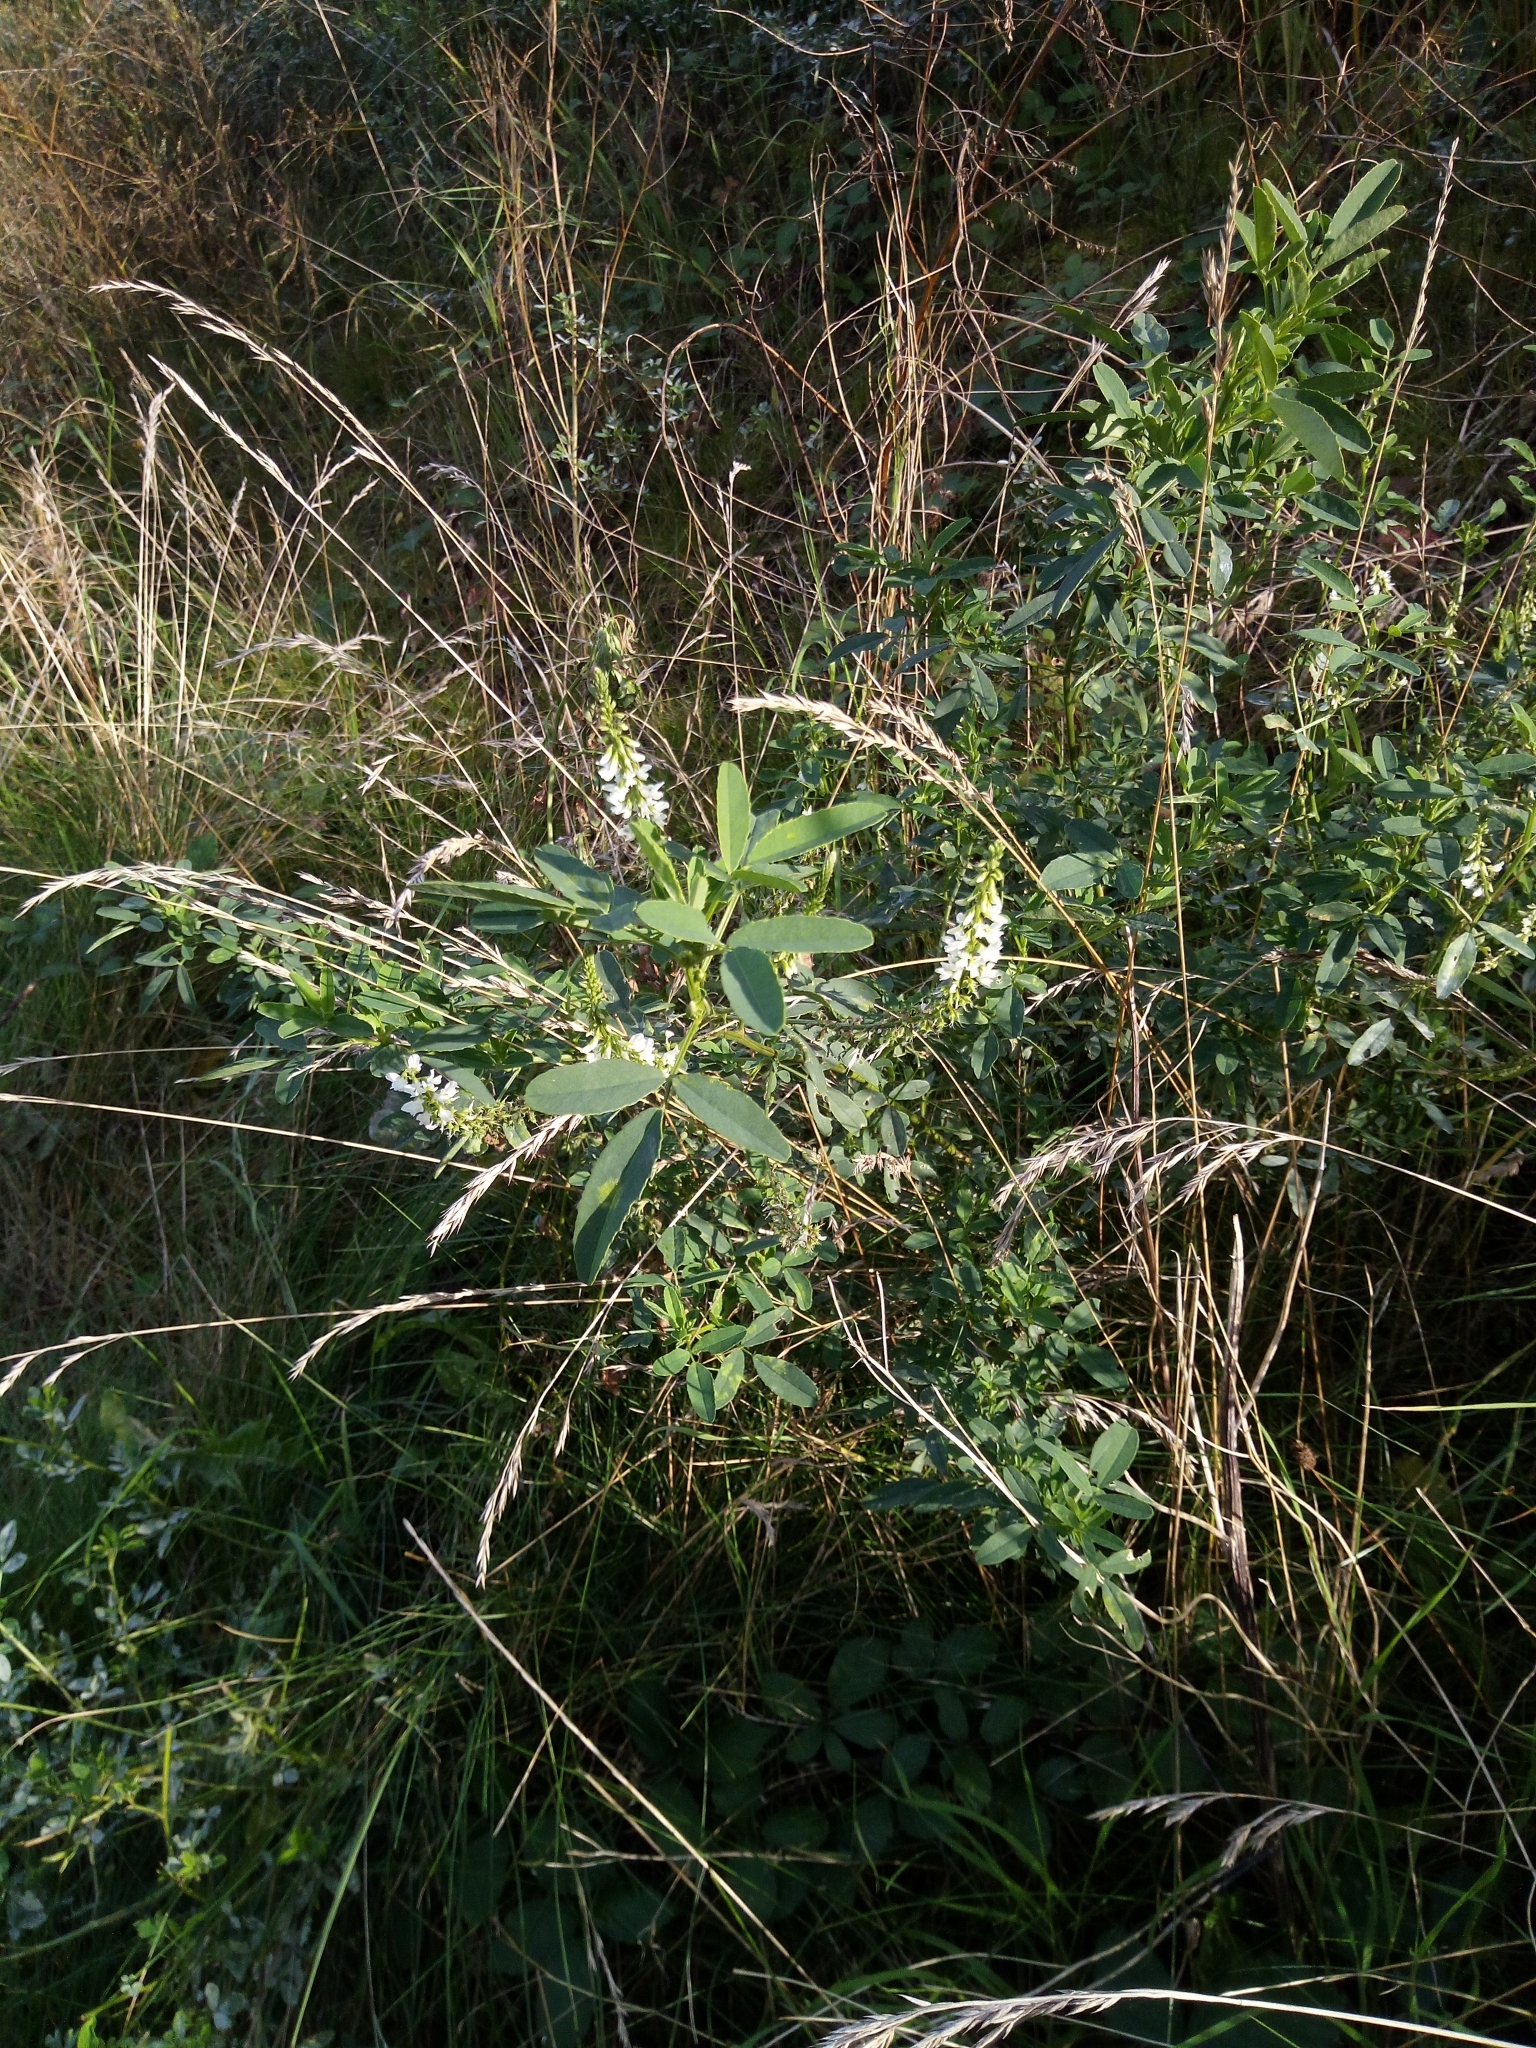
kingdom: Plantae
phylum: Tracheophyta
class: Magnoliopsida
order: Fabales
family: Fabaceae
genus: Melilotus
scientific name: Melilotus albus
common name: White melilot
